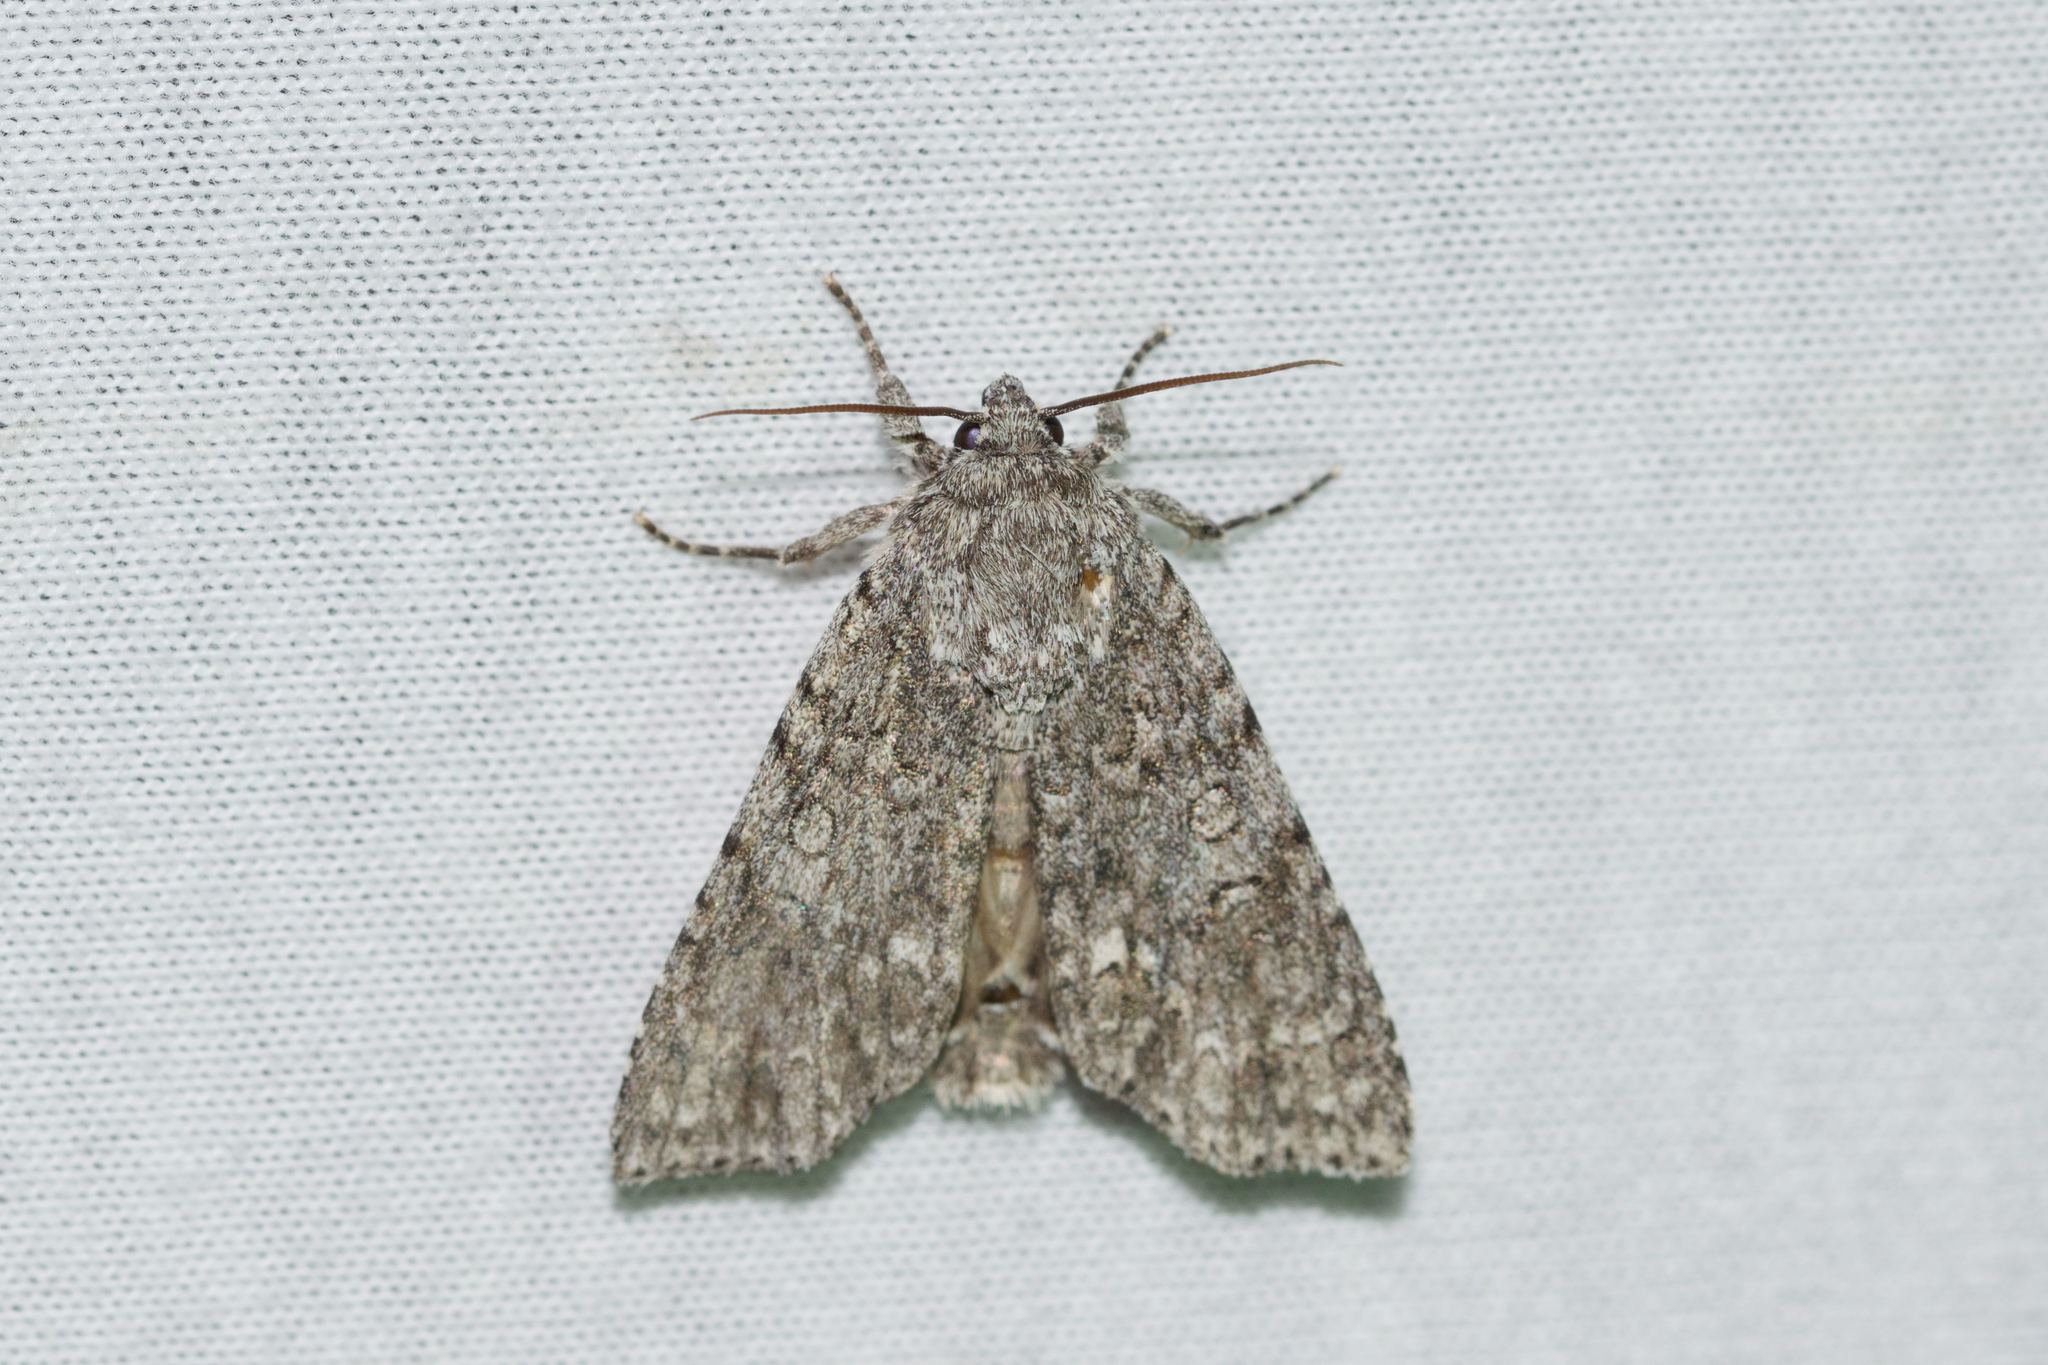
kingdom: Animalia
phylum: Arthropoda
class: Insecta
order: Lepidoptera
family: Noctuidae
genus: Acronicta
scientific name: Acronicta impleta
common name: Powdered dagger
